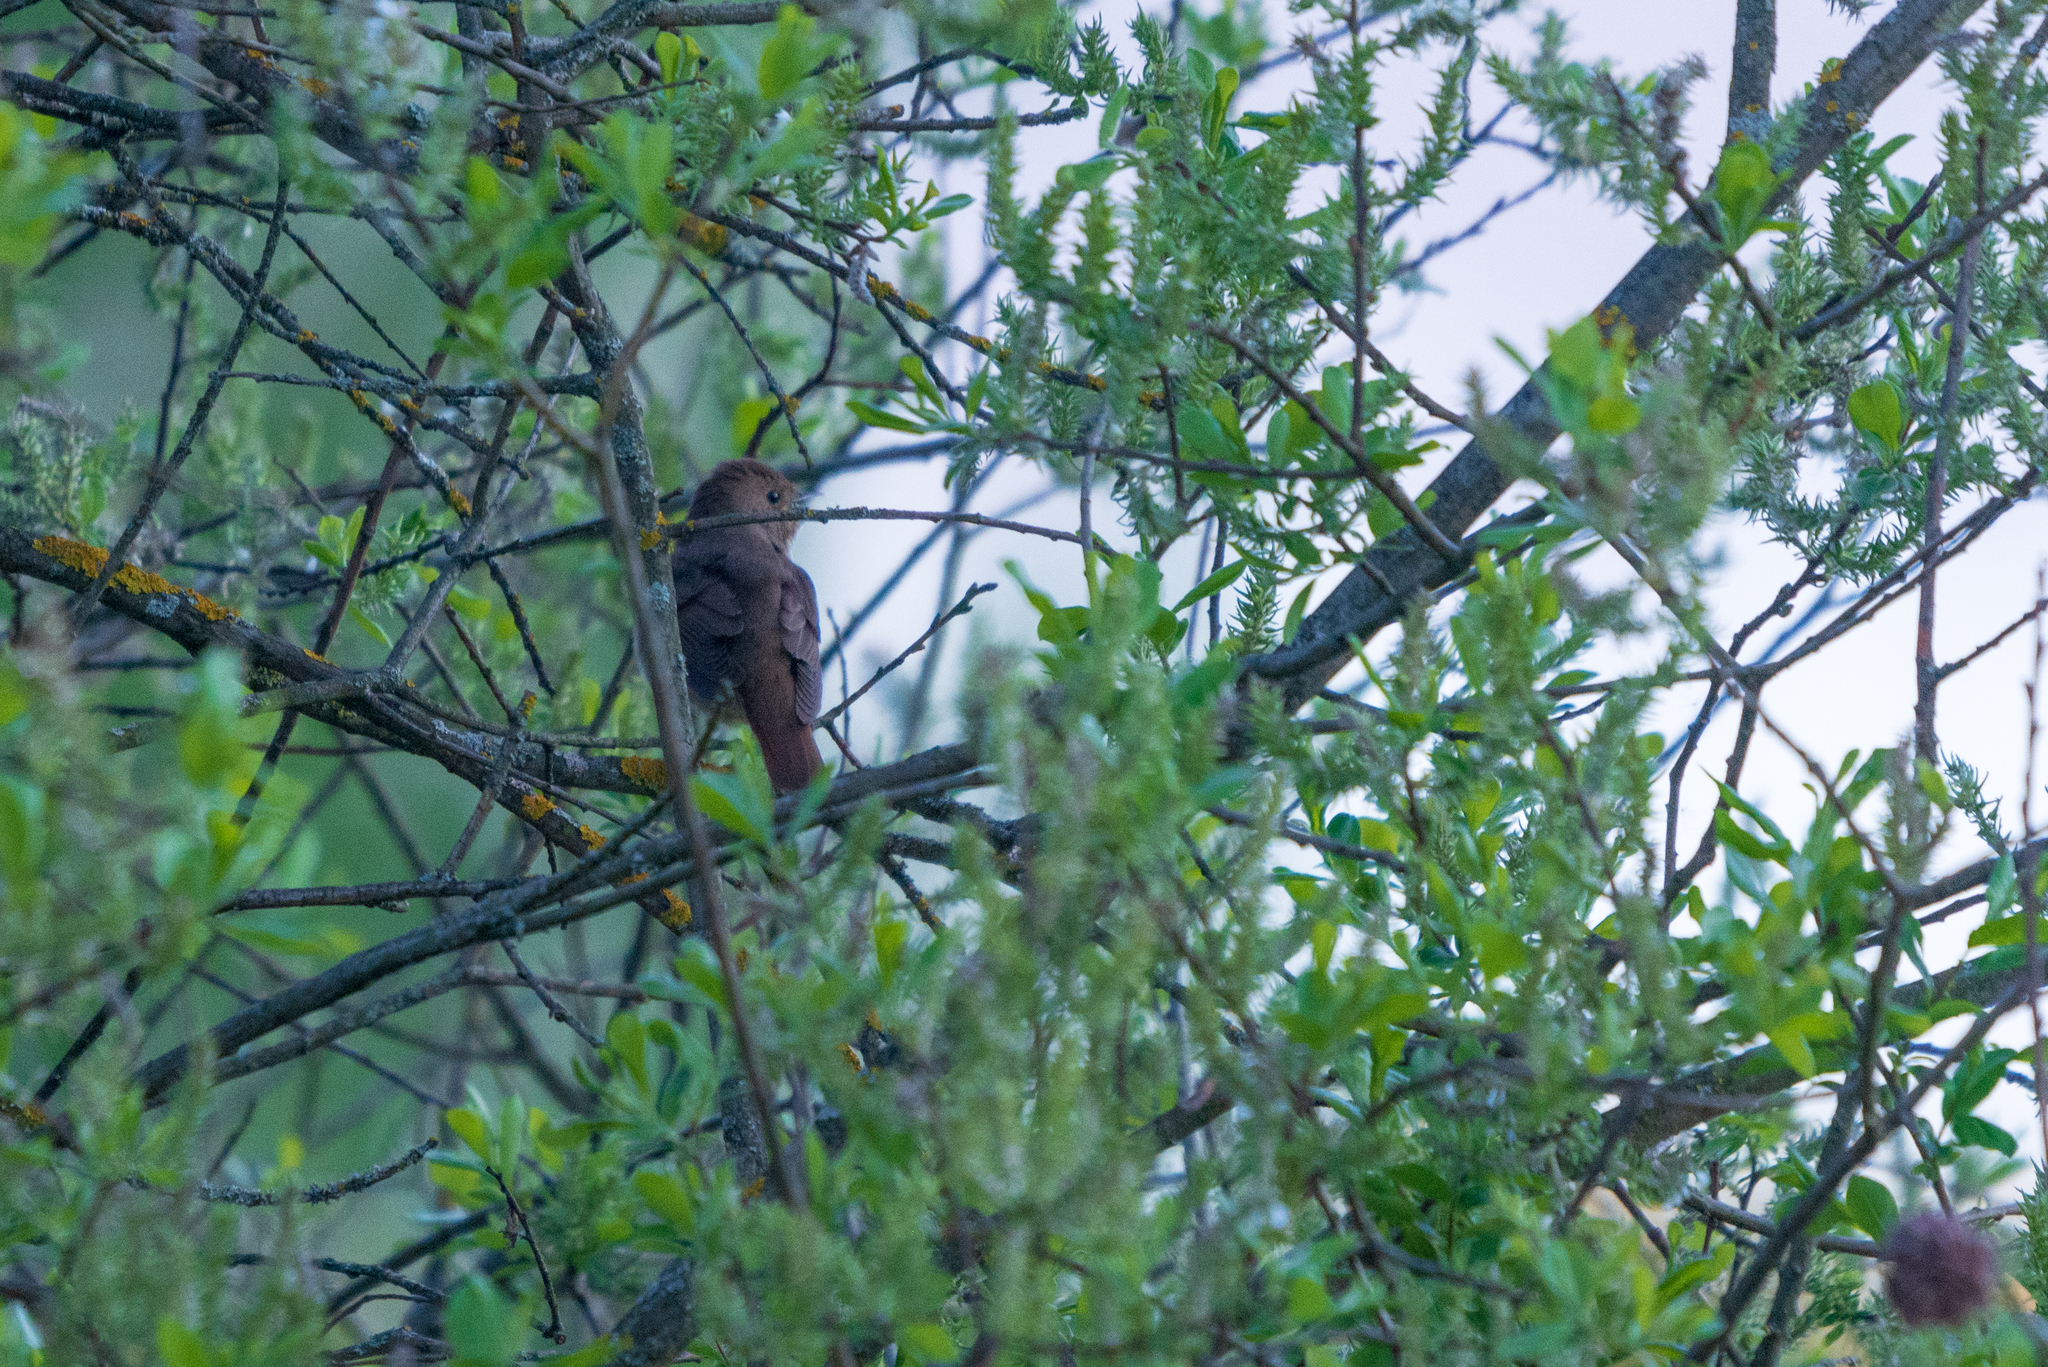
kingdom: Animalia
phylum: Chordata
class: Aves
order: Passeriformes
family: Muscicapidae
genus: Luscinia
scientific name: Luscinia luscinia
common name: Thrush nightingale
